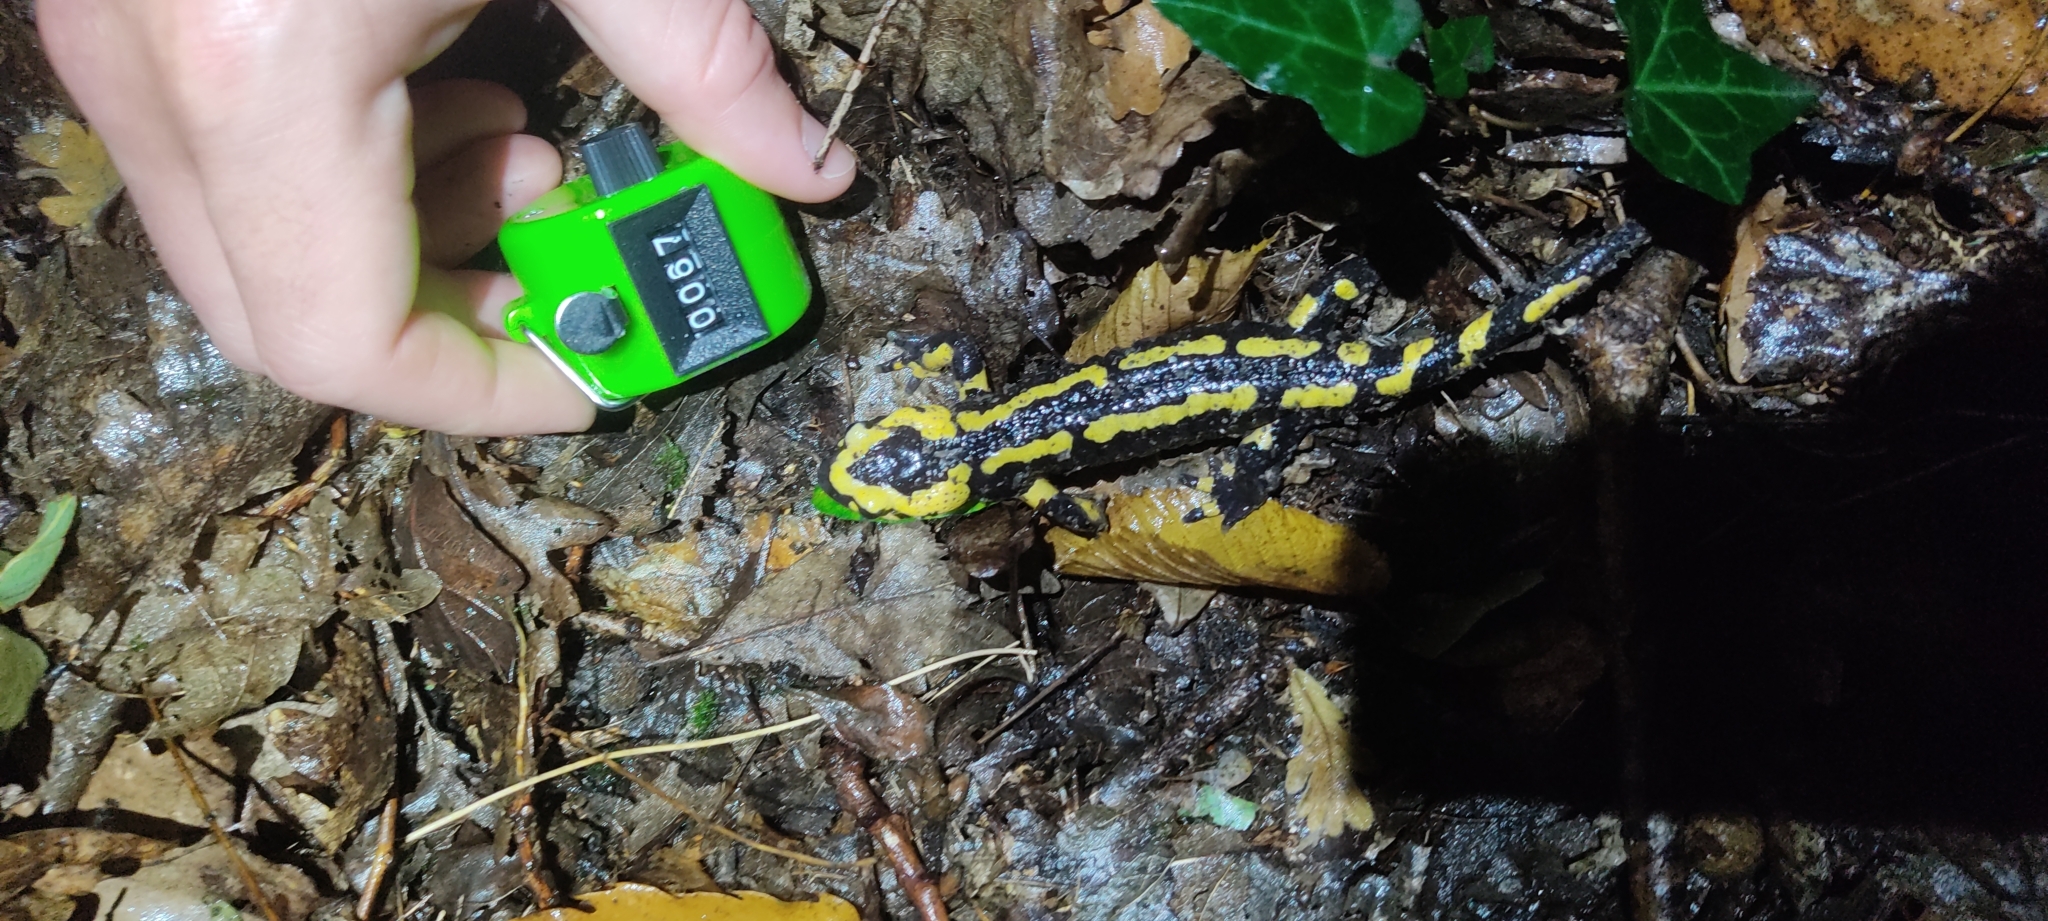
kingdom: Animalia
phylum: Chordata
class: Amphibia
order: Caudata
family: Salamandridae
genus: Salamandra
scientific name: Salamandra salamandra
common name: Fire salamander
